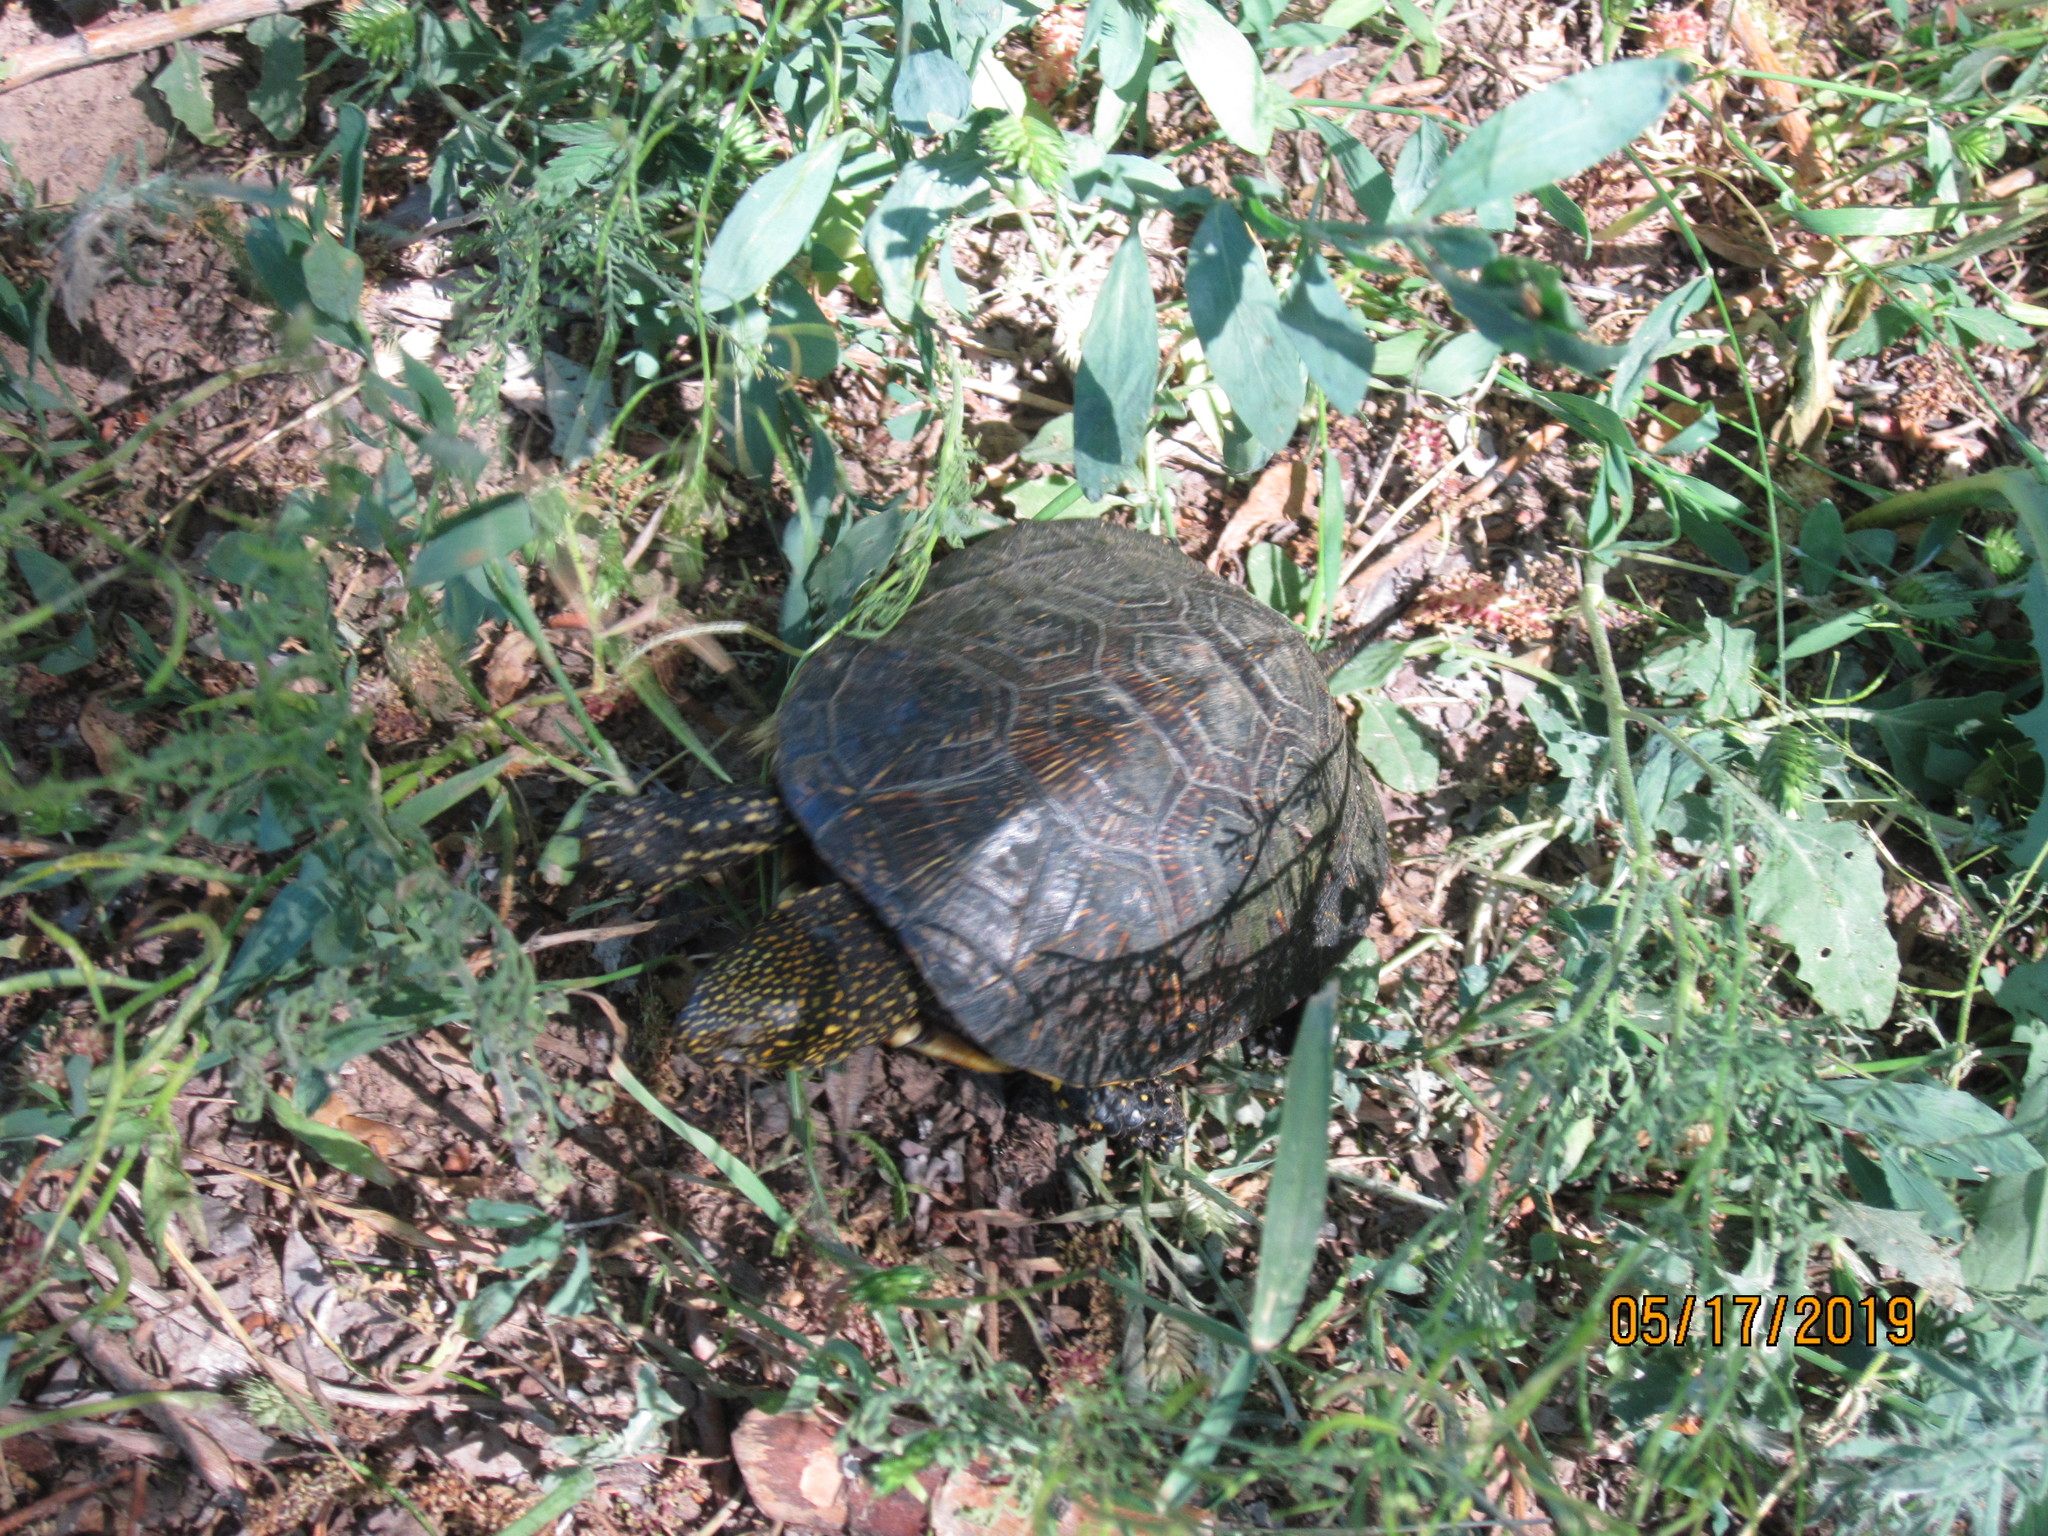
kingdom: Animalia
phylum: Chordata
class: Testudines
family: Emydidae
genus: Emys
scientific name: Emys orbicularis
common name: European pond turtle
